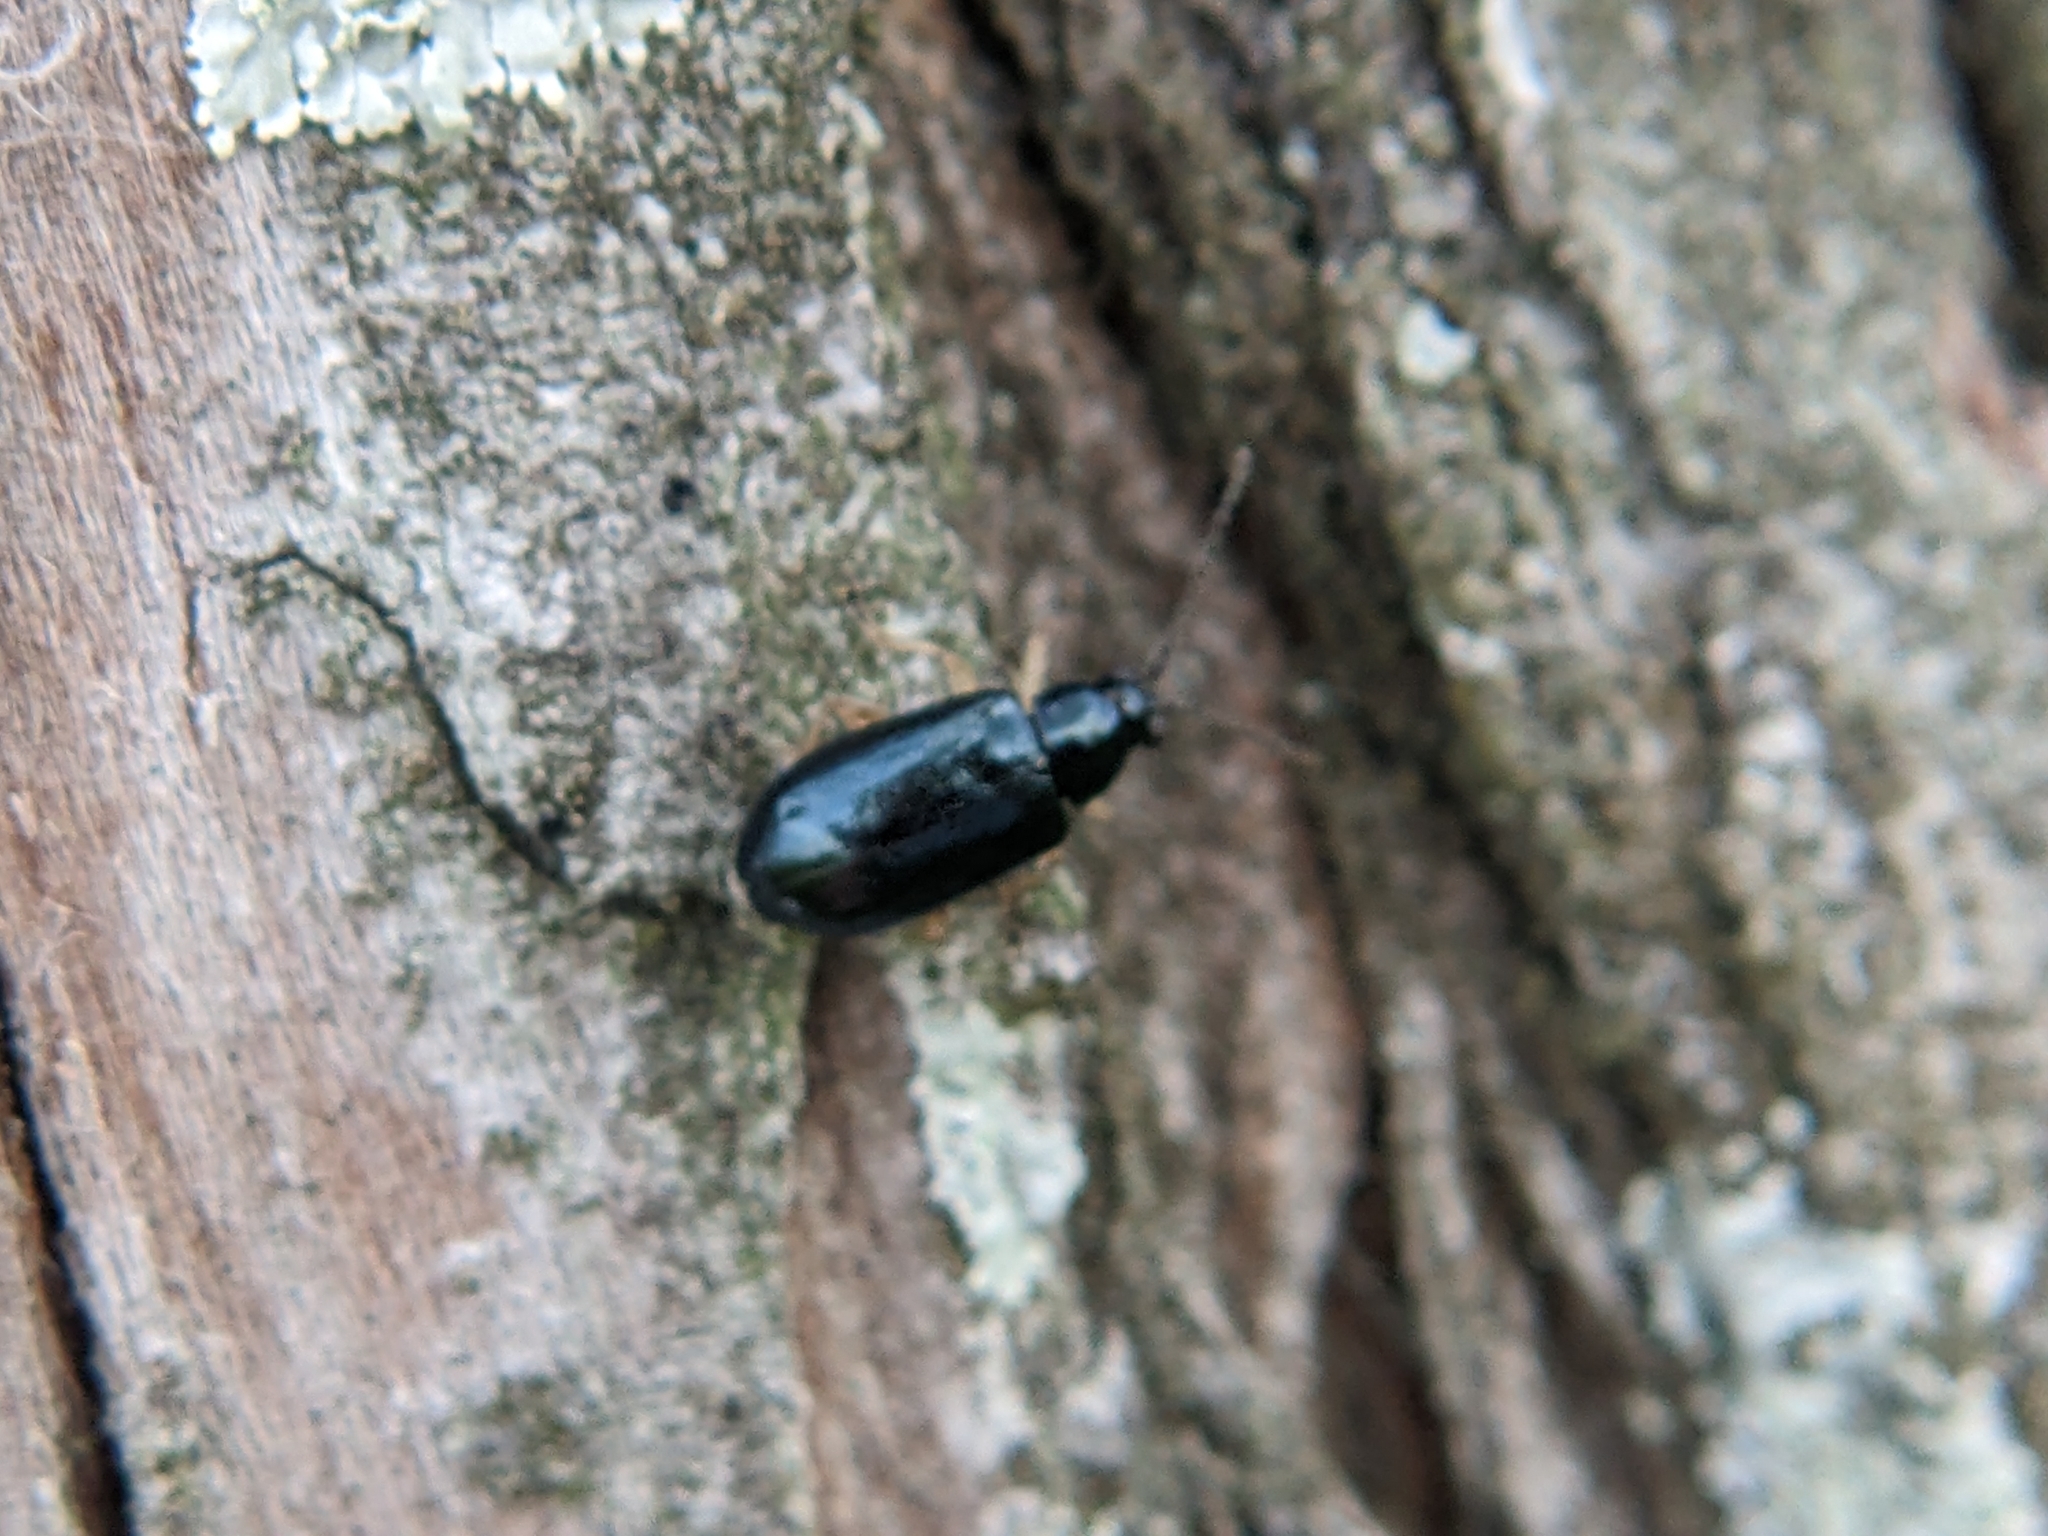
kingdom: Animalia
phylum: Arthropoda
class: Insecta
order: Coleoptera
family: Chrysomelidae
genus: Lysathia
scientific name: Lysathia ludoviciana
